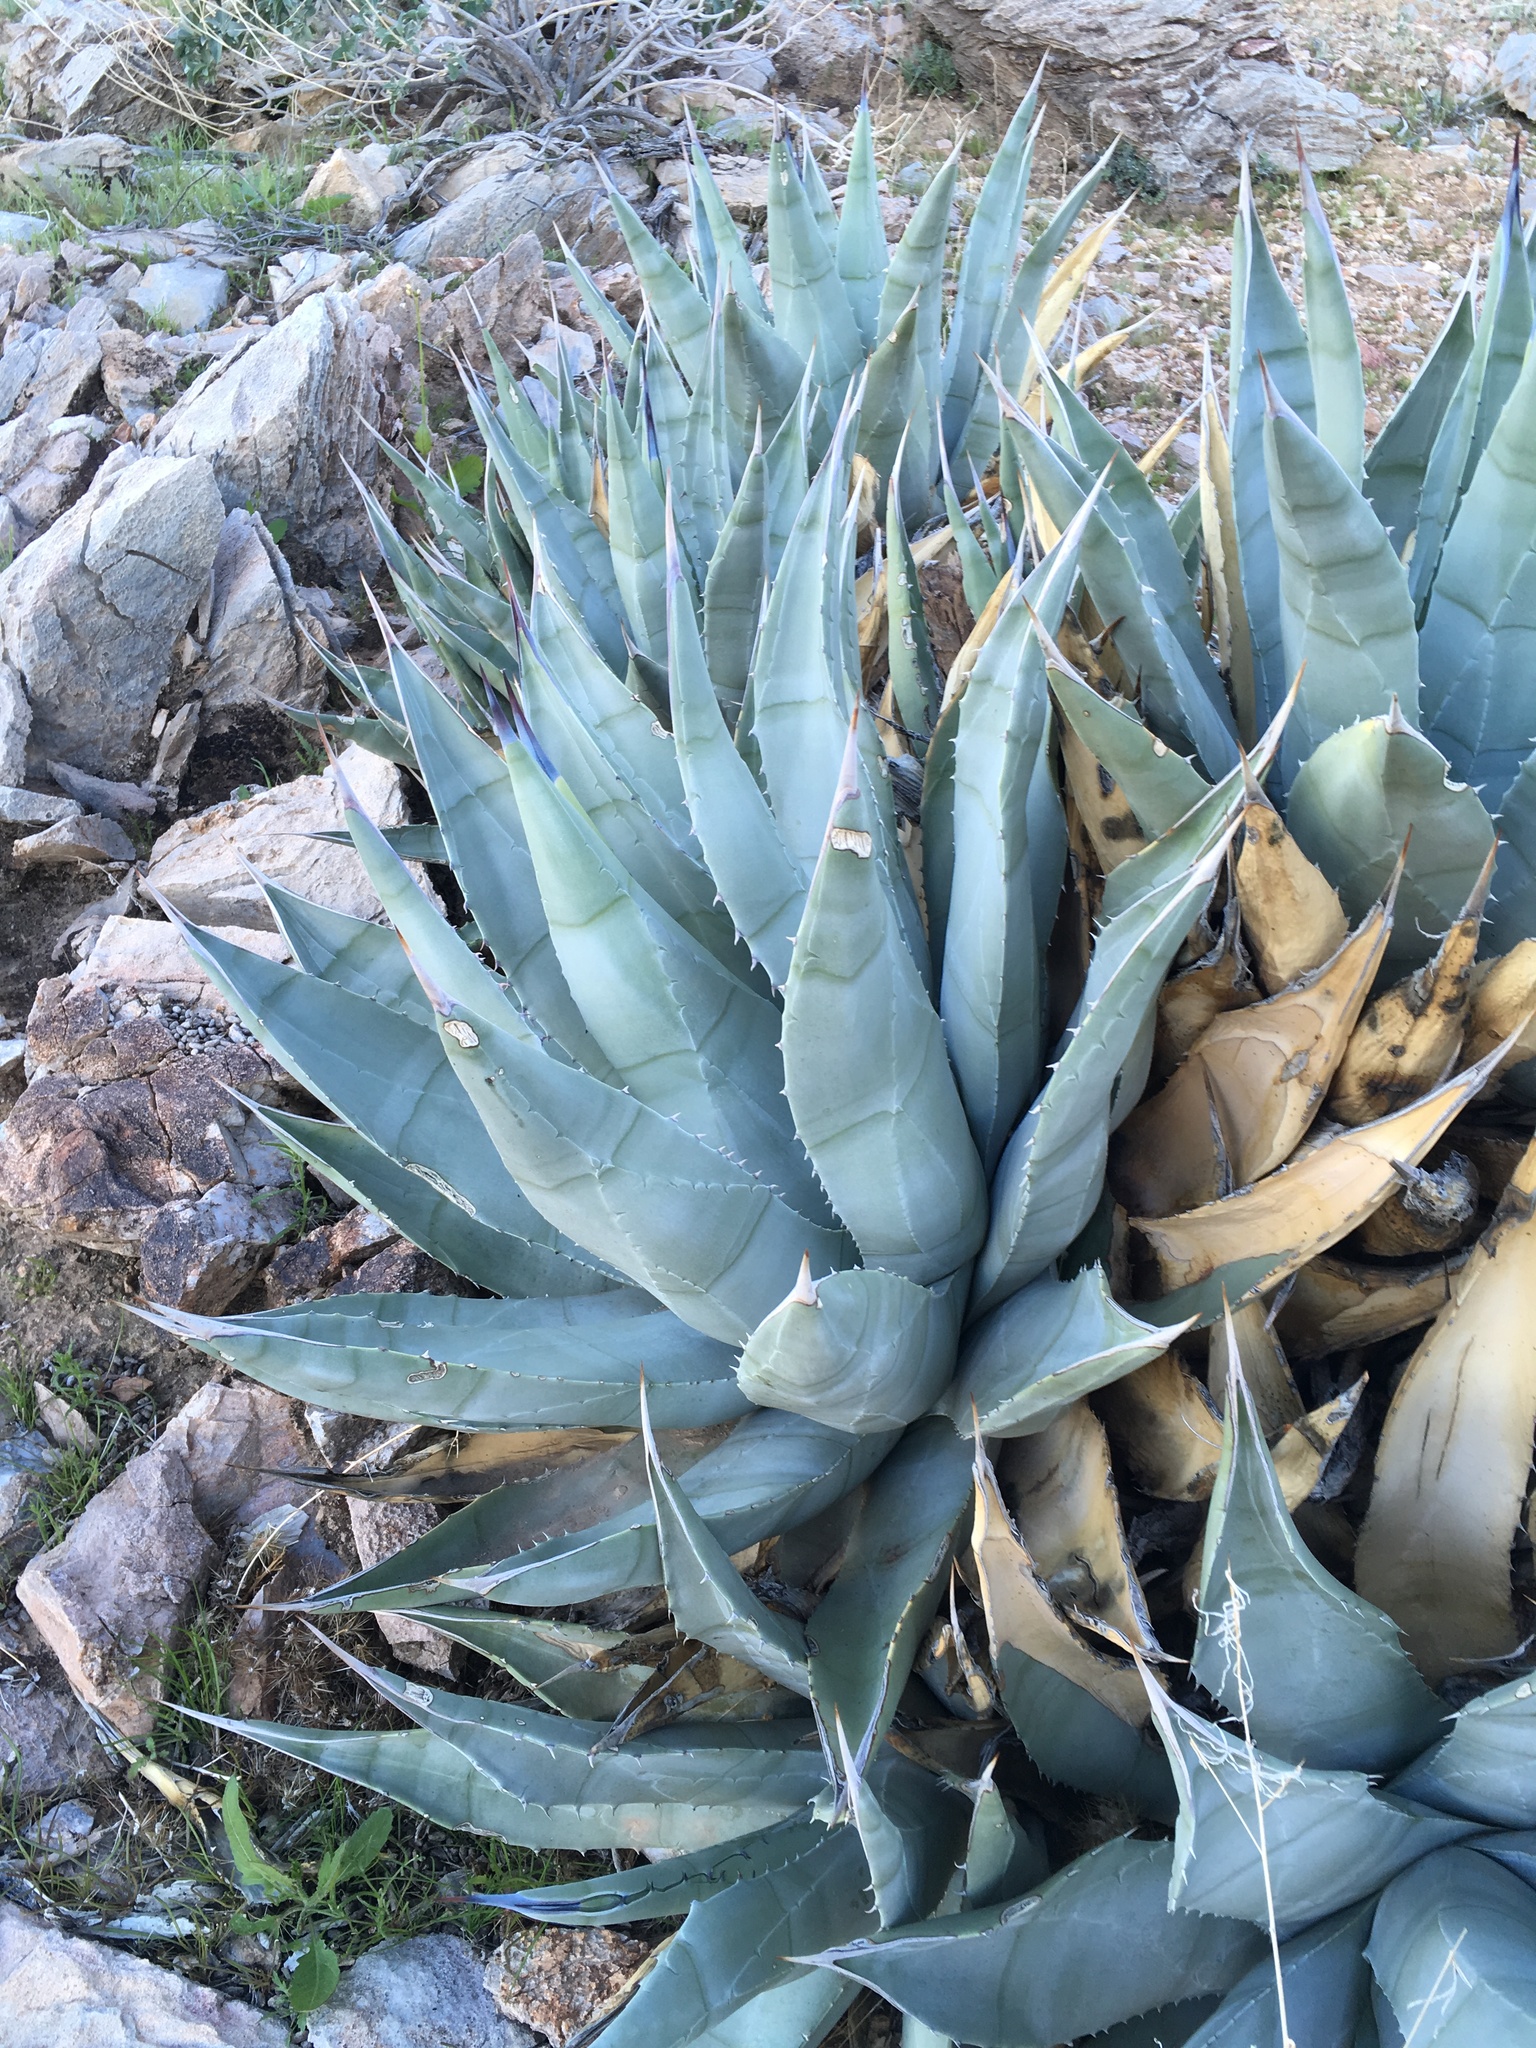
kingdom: Plantae
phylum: Tracheophyta
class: Liliopsida
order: Asparagales
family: Asparagaceae
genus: Agave
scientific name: Agave deserti
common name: Desert agave
